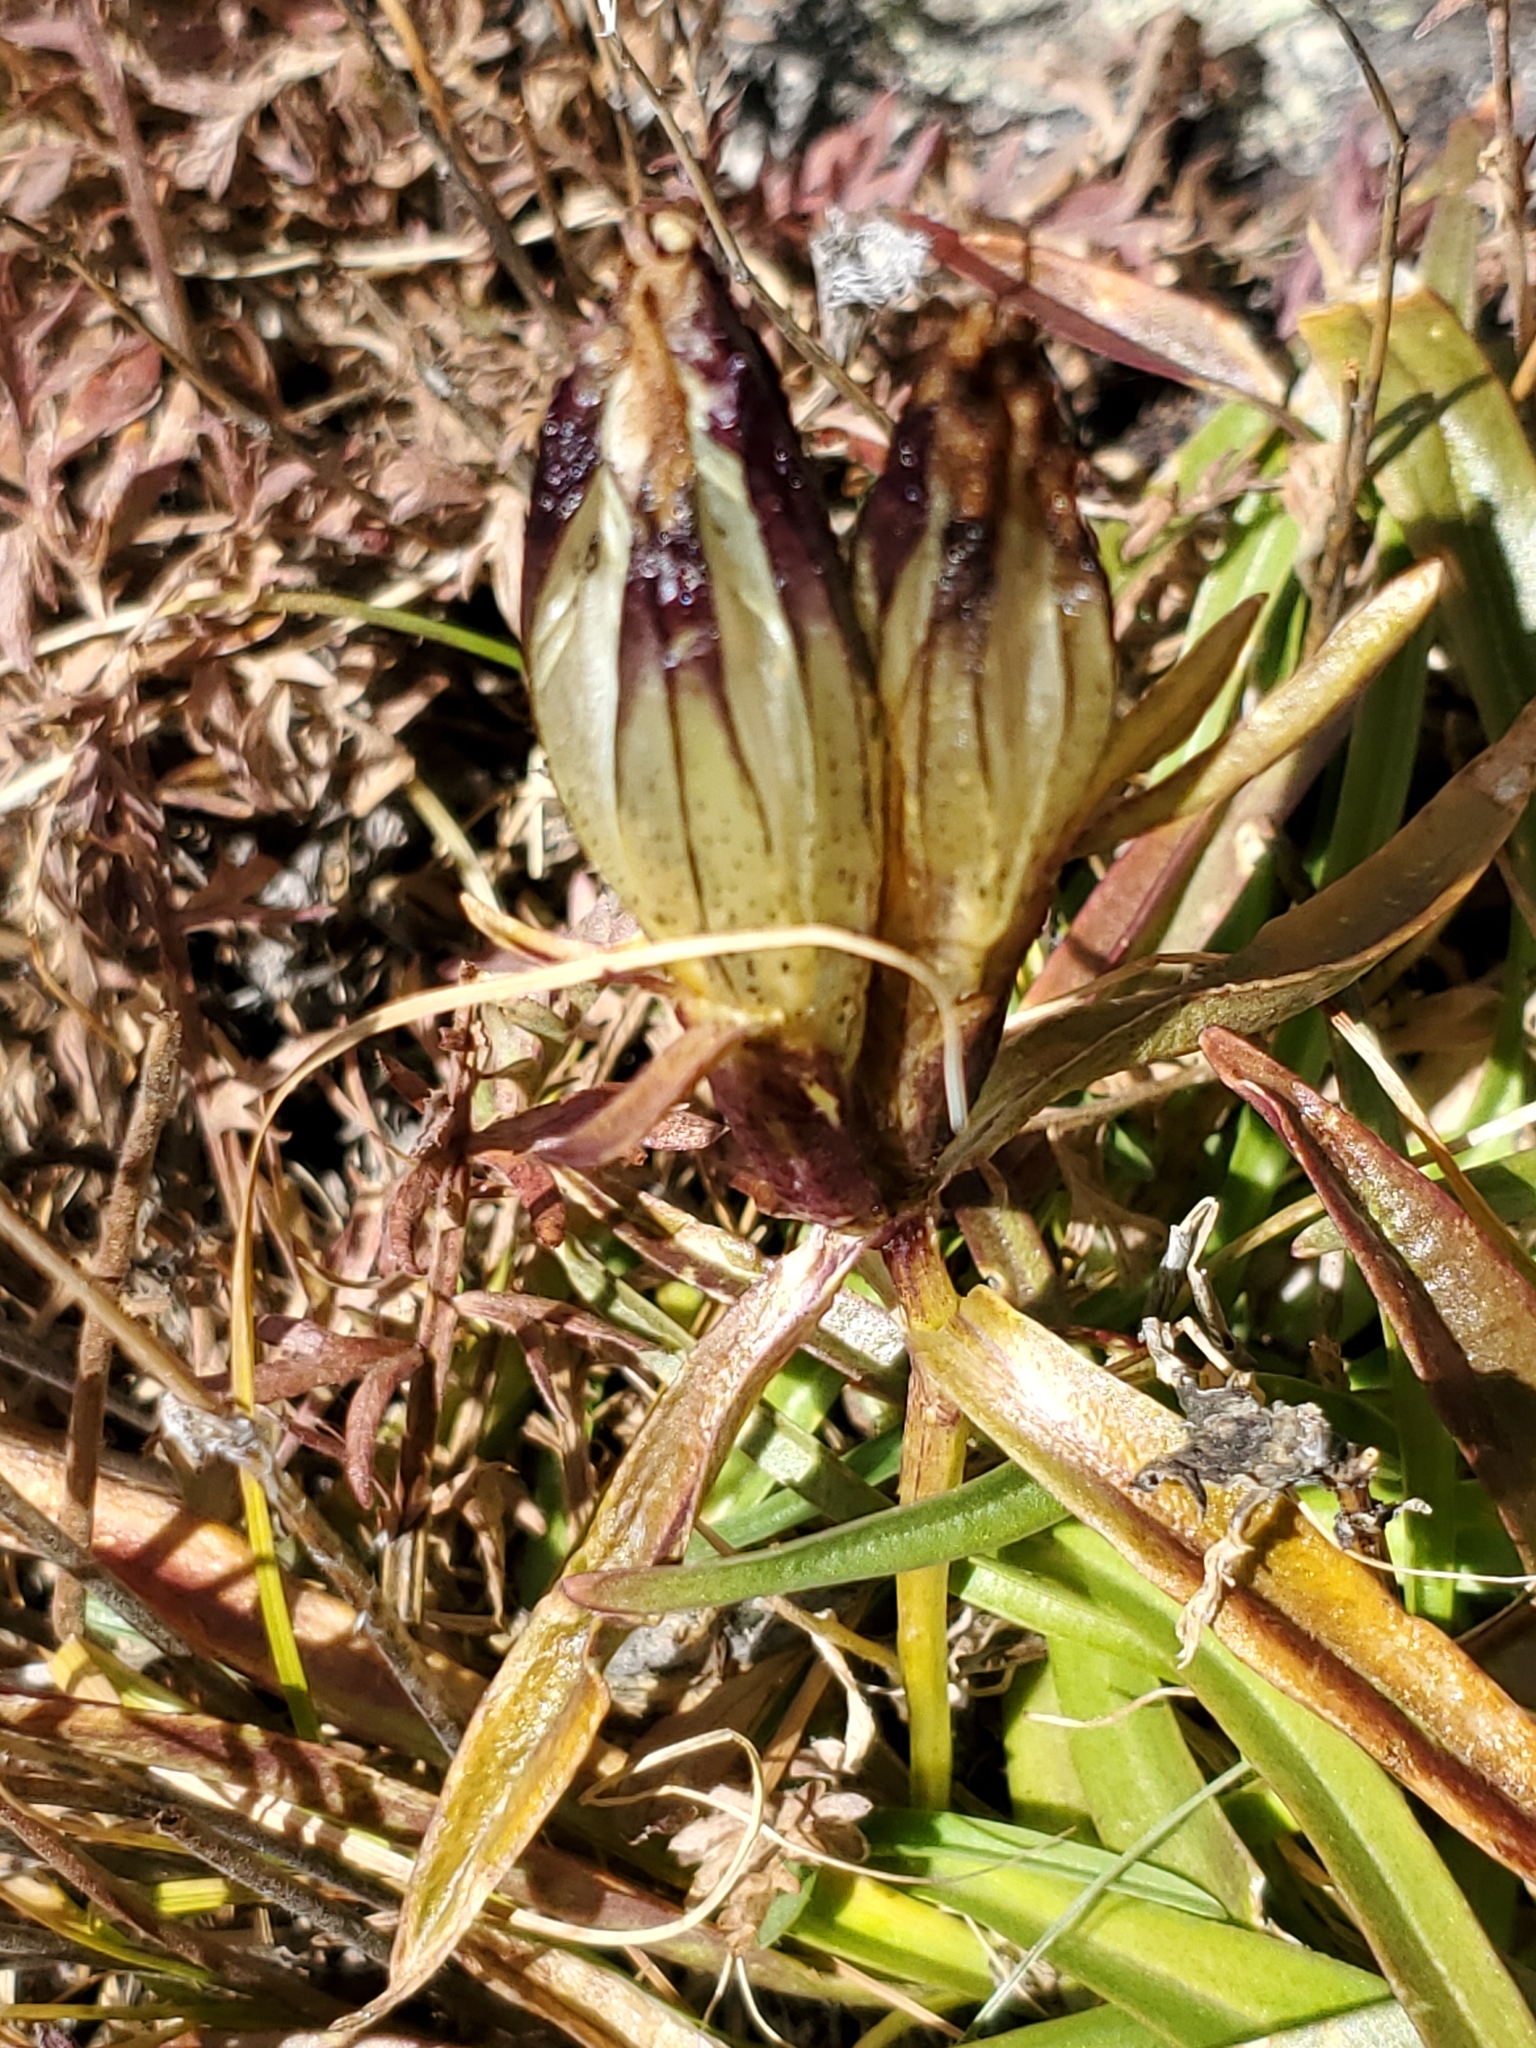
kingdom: Plantae
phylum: Tracheophyta
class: Magnoliopsida
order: Gentianales
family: Gentianaceae
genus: Gentiana
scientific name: Gentiana algida
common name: Arctic gentian
